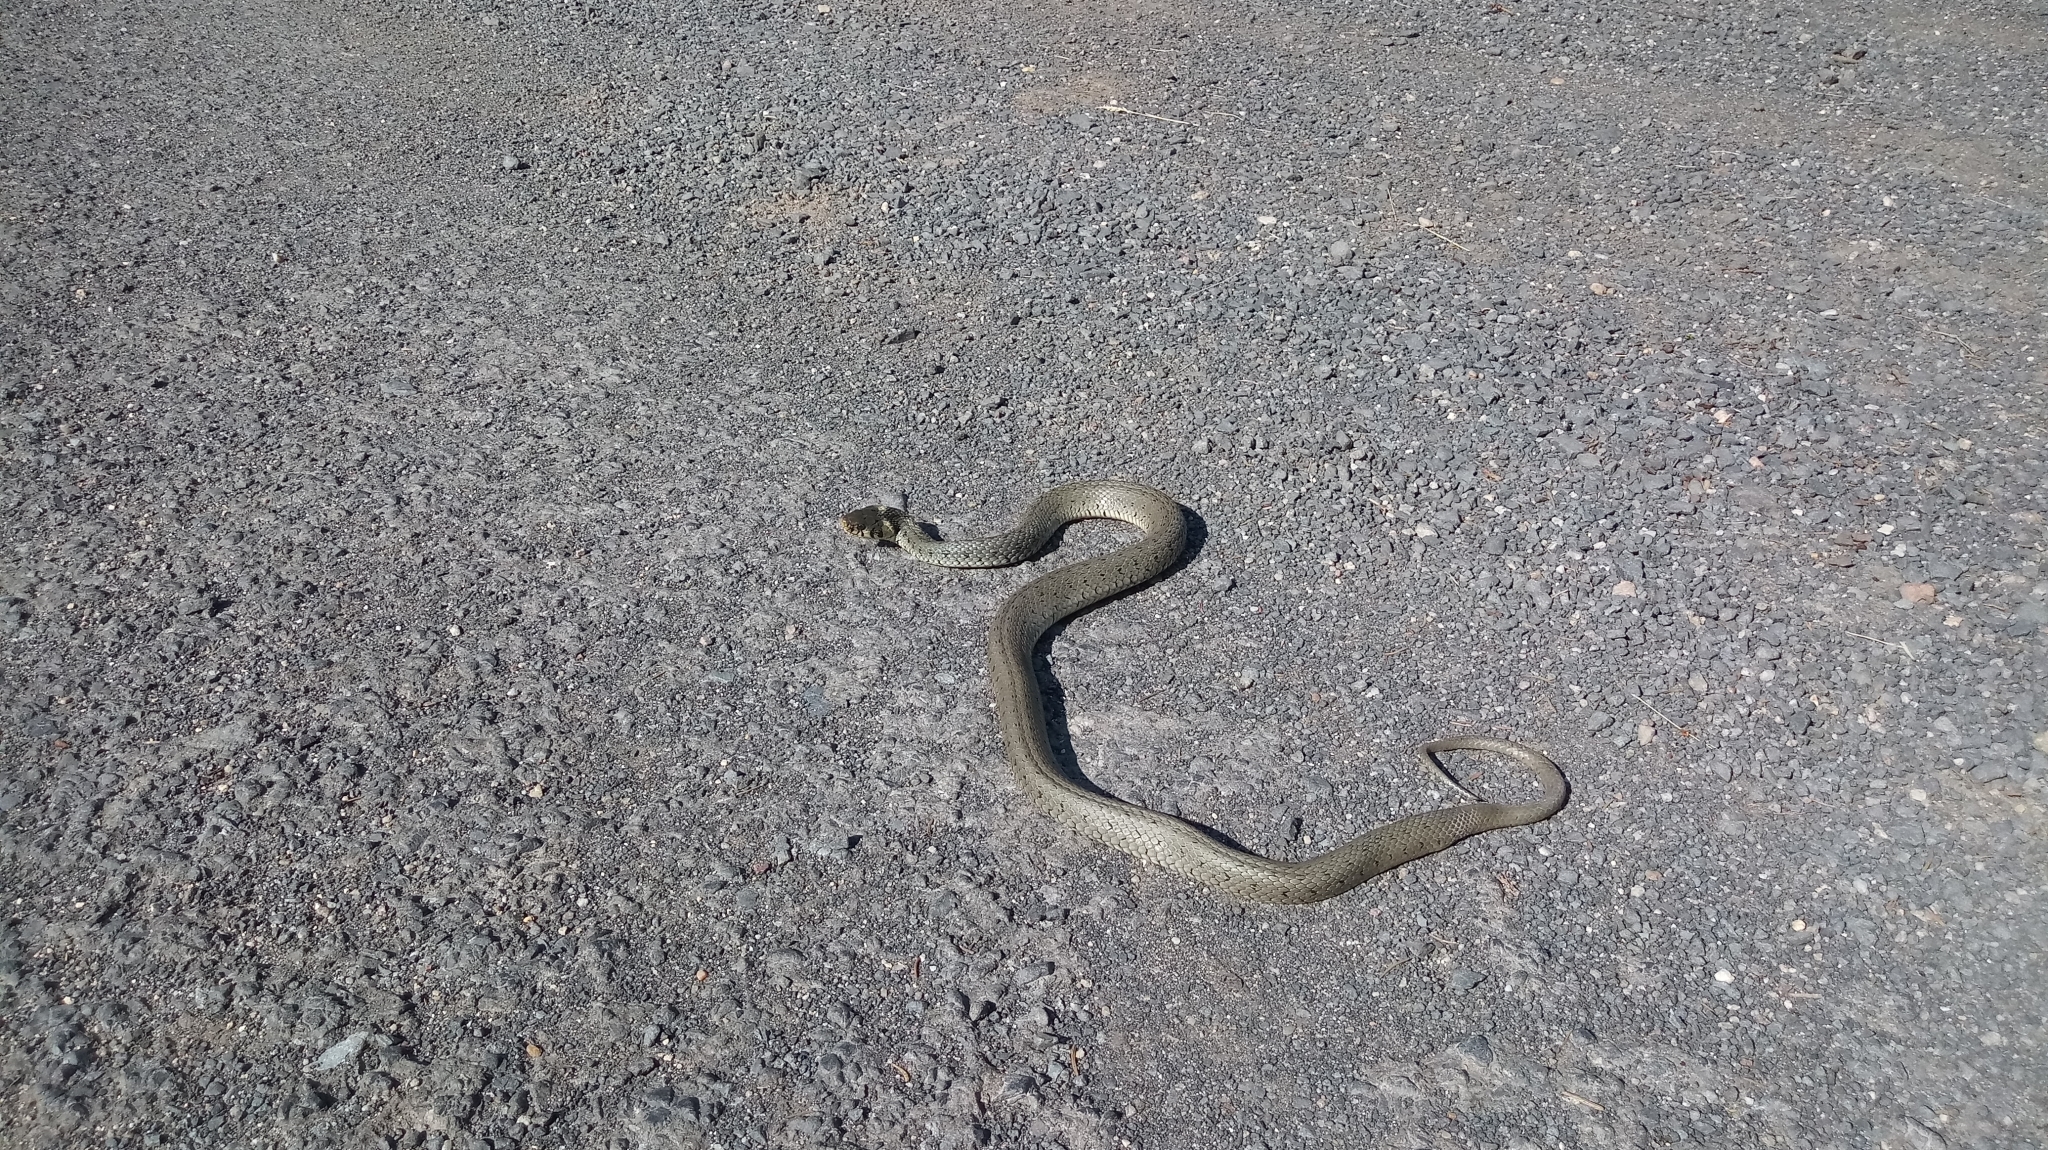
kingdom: Animalia
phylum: Chordata
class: Squamata
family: Colubridae
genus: Natrix
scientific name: Natrix natrix
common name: Grass snake
